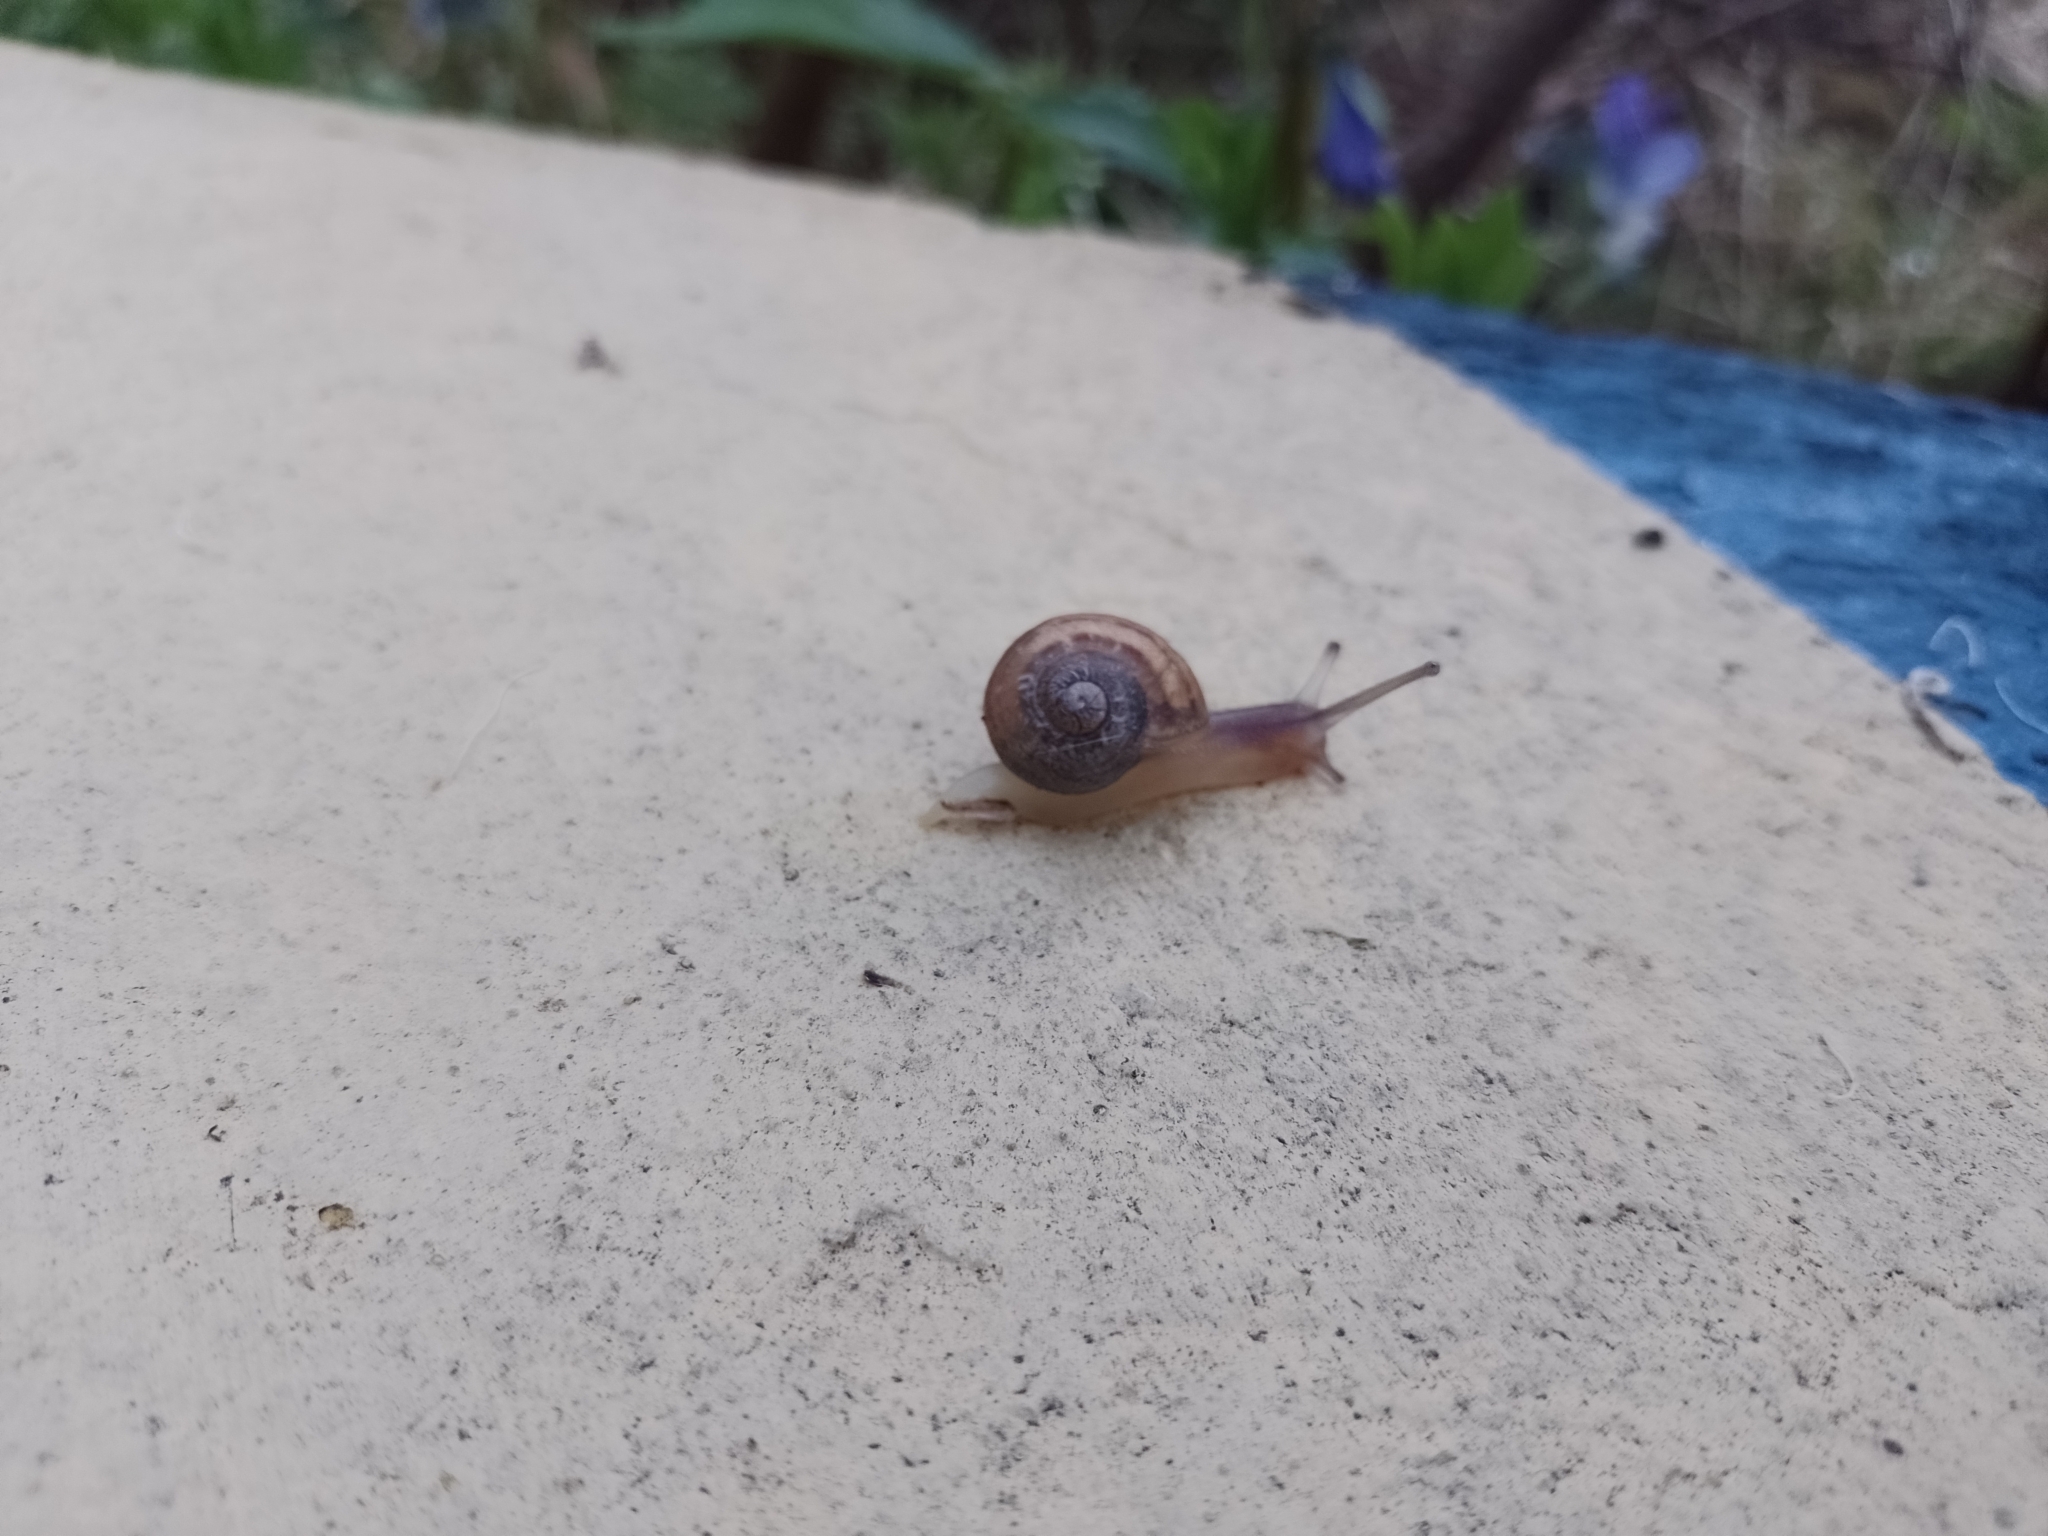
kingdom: Animalia
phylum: Mollusca
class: Gastropoda
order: Stylommatophora
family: Helicidae
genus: Cornu
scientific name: Cornu aspersum
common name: Brown garden snail
